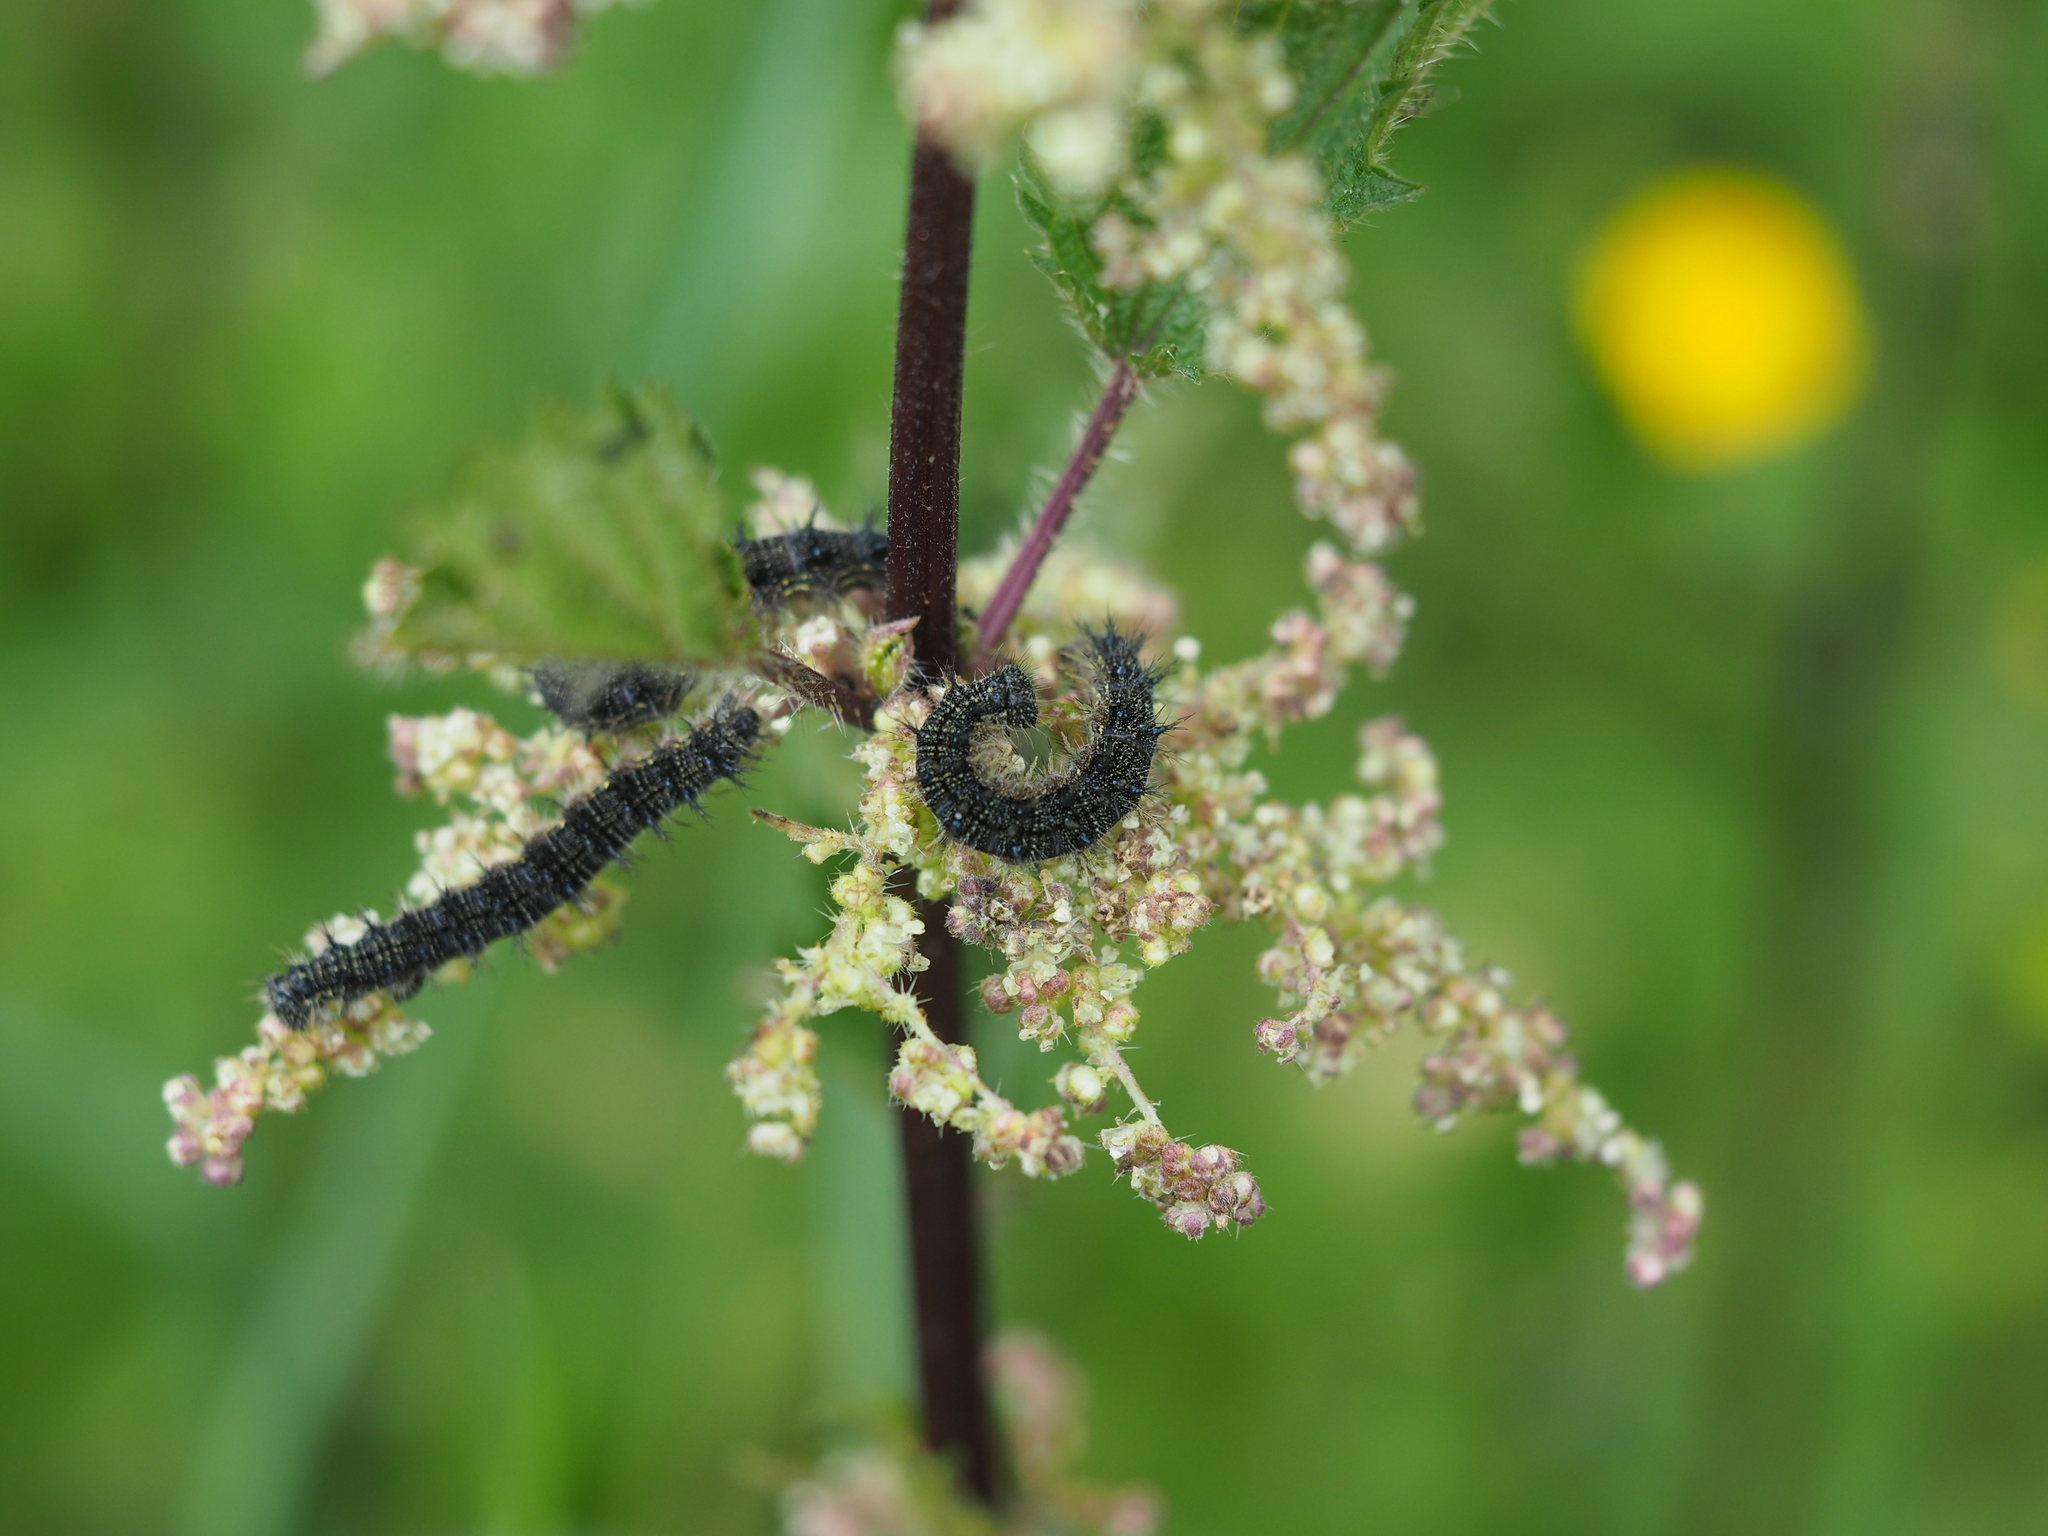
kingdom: Animalia
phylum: Arthropoda
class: Insecta
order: Lepidoptera
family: Nymphalidae
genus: Aglais
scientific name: Aglais urticae
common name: Small tortoiseshell
